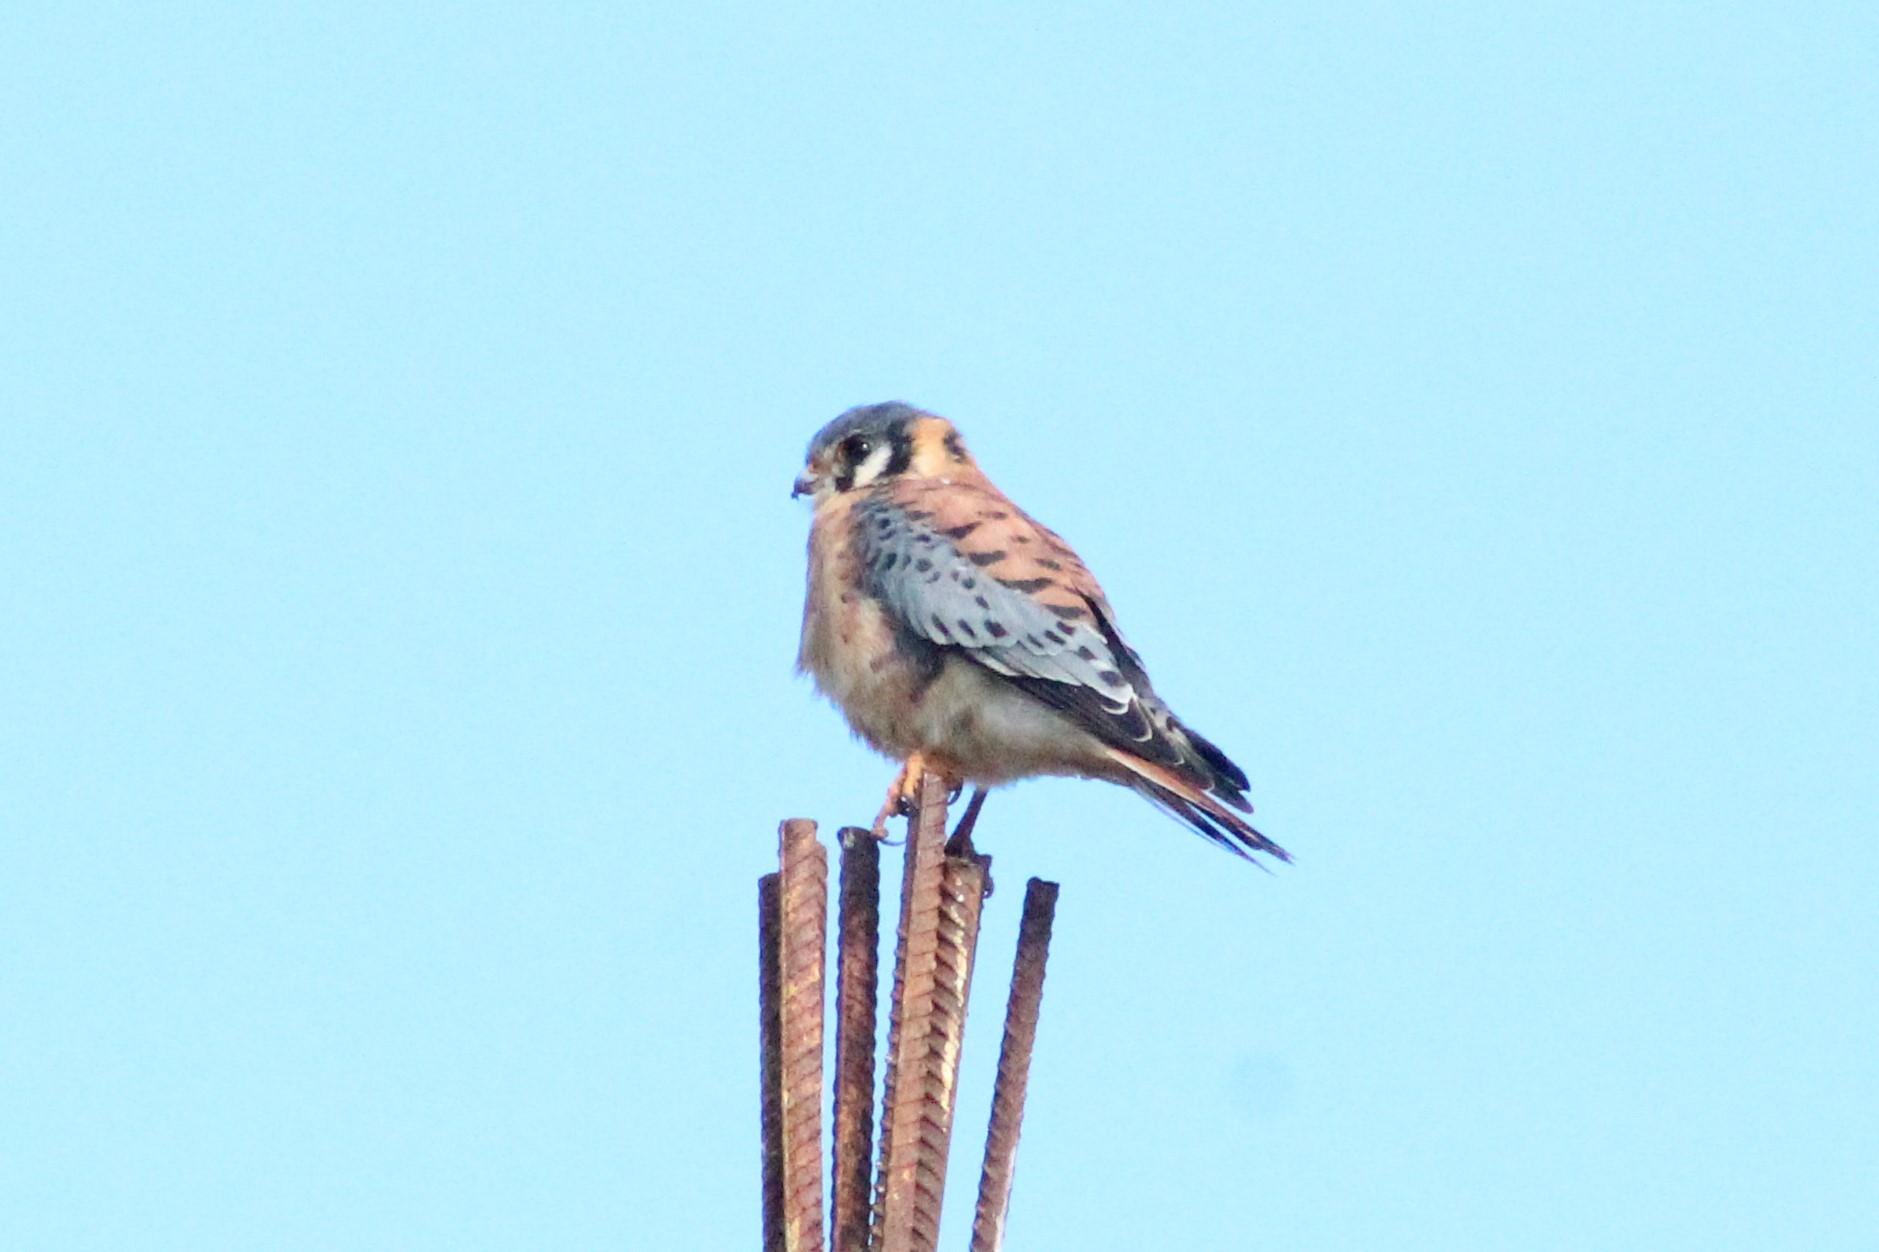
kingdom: Animalia
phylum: Chordata
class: Aves
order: Falconiformes
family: Falconidae
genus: Falco
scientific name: Falco sparverius
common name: American kestrel
